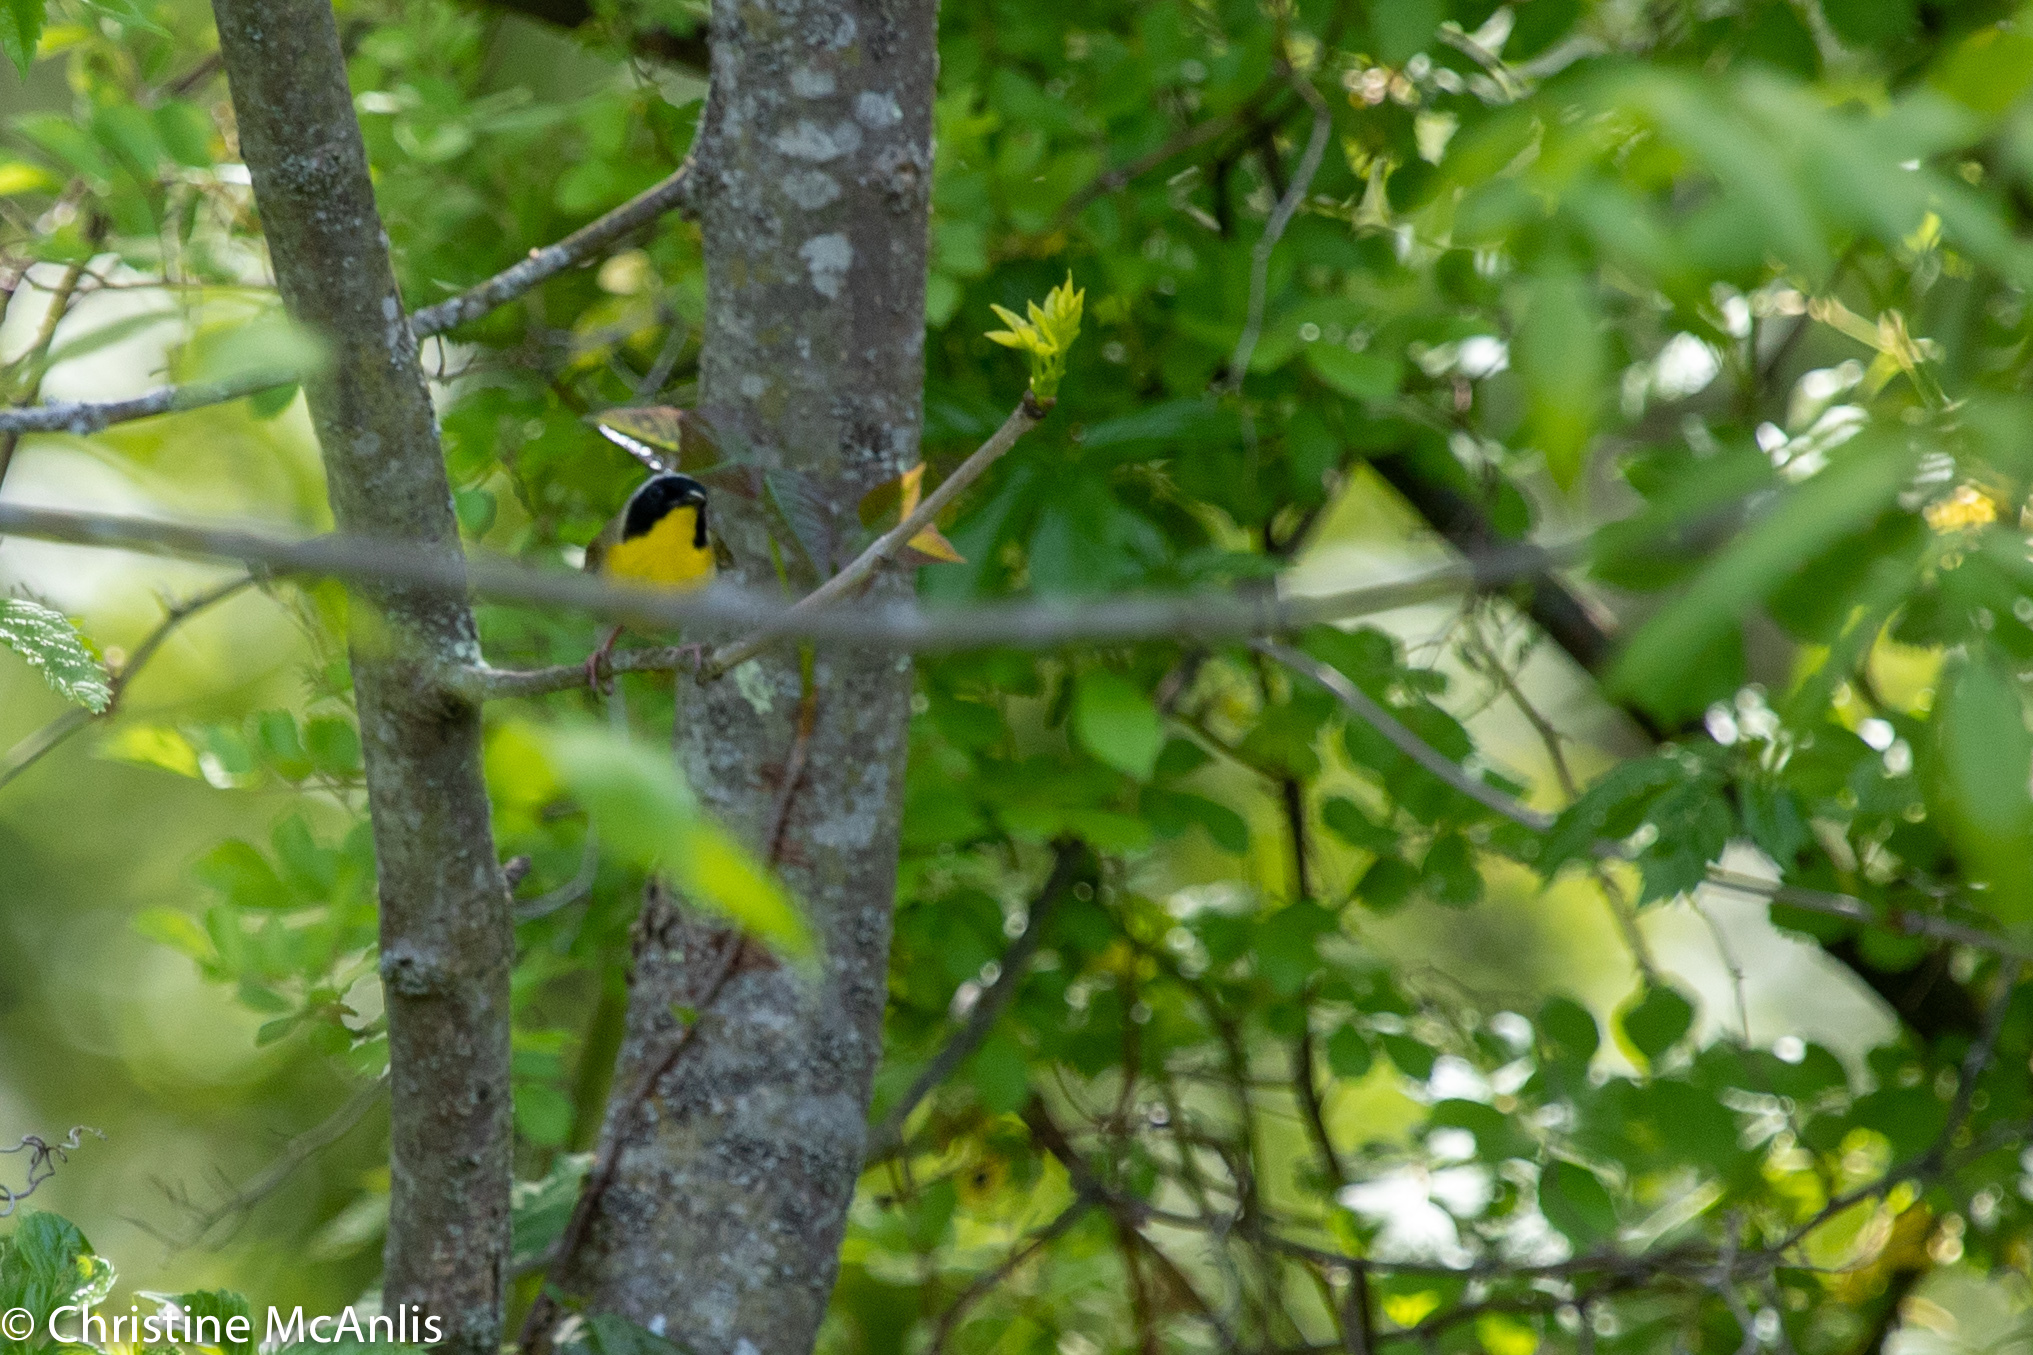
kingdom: Animalia
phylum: Chordata
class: Aves
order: Passeriformes
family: Parulidae
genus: Geothlypis
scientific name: Geothlypis trichas
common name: Common yellowthroat
